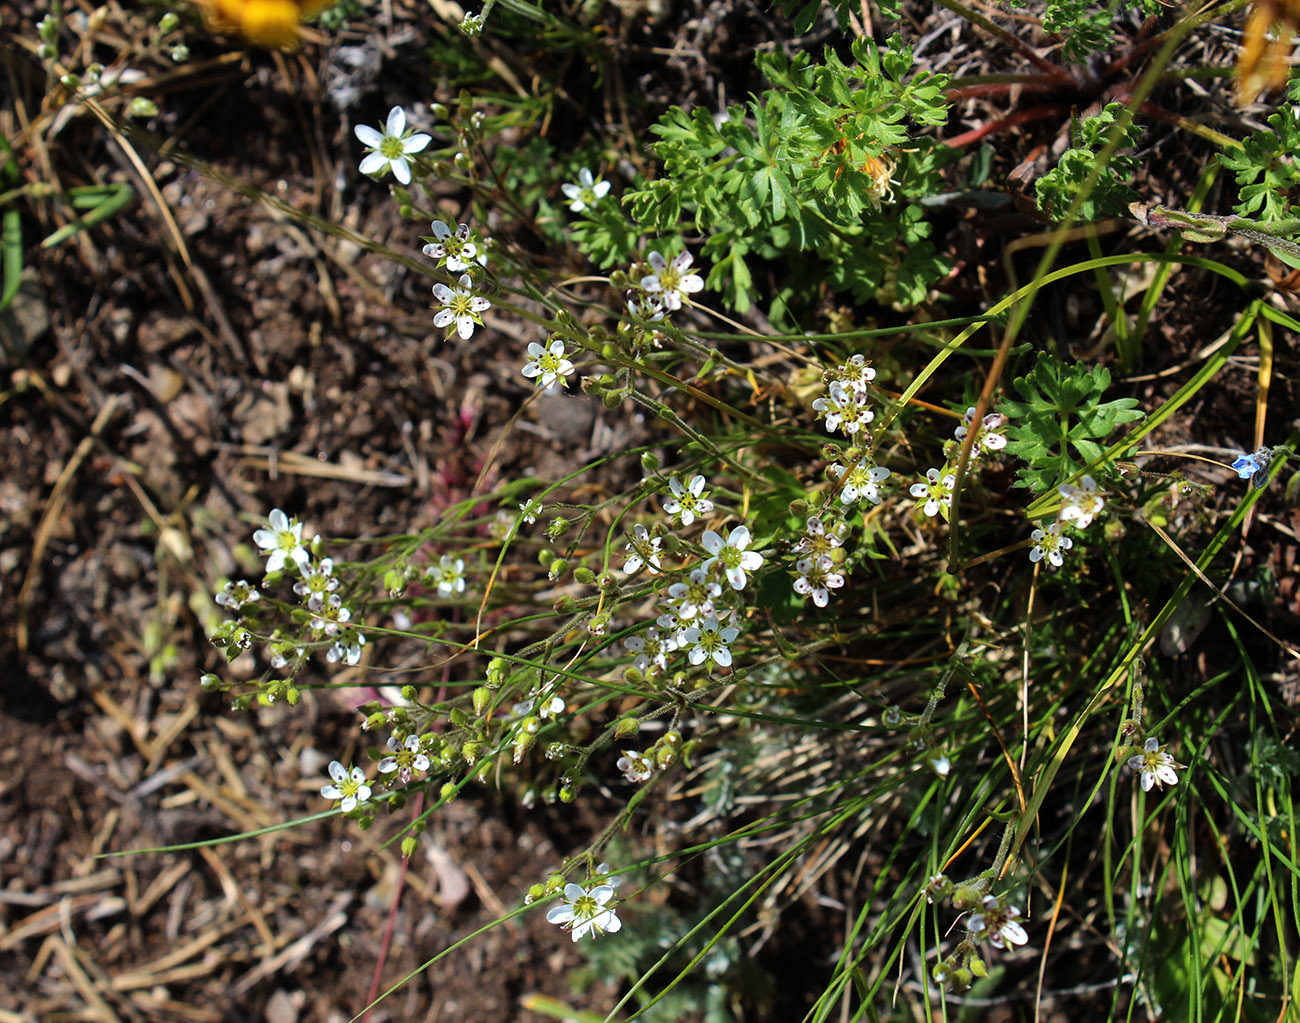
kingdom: Plantae
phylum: Tracheophyta
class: Magnoliopsida
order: Caryophyllales
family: Caryophyllaceae
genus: Minuartia
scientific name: Minuartia hirsuta
